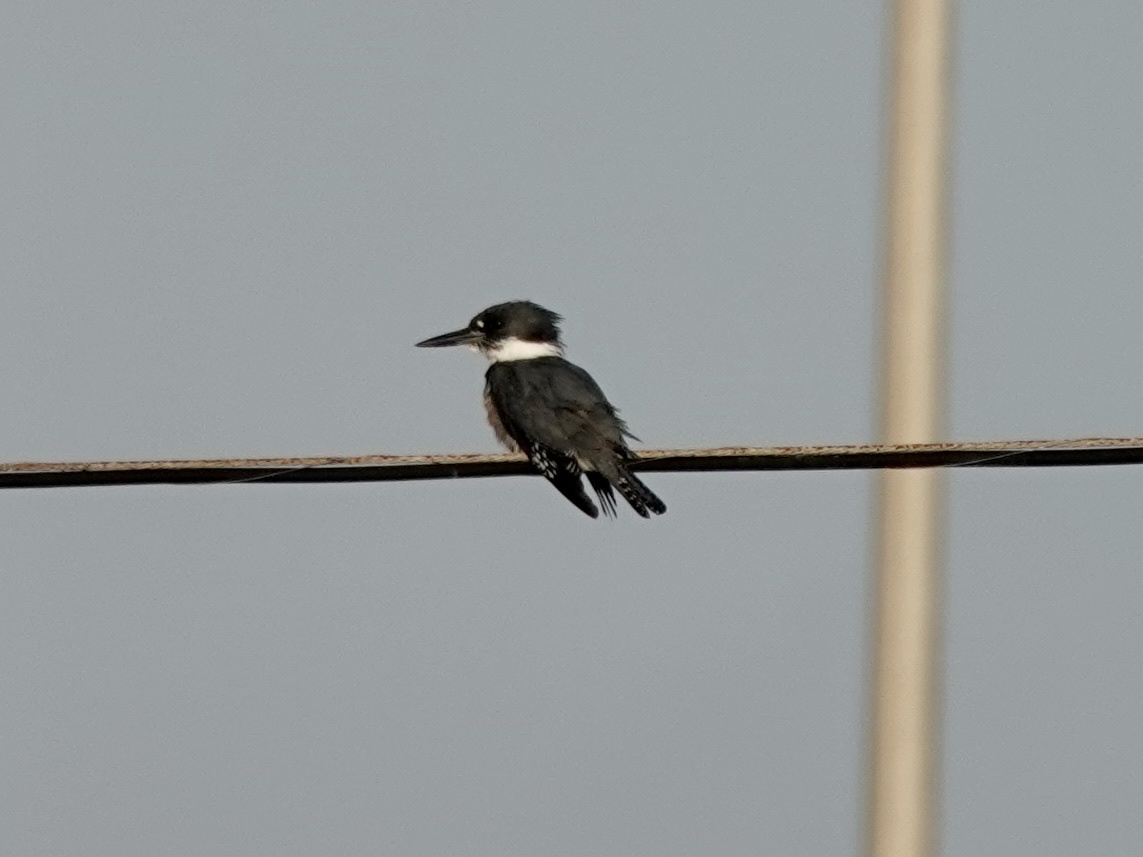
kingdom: Animalia
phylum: Chordata
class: Aves
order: Coraciiformes
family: Alcedinidae
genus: Megaceryle
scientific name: Megaceryle alcyon
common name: Belted kingfisher
